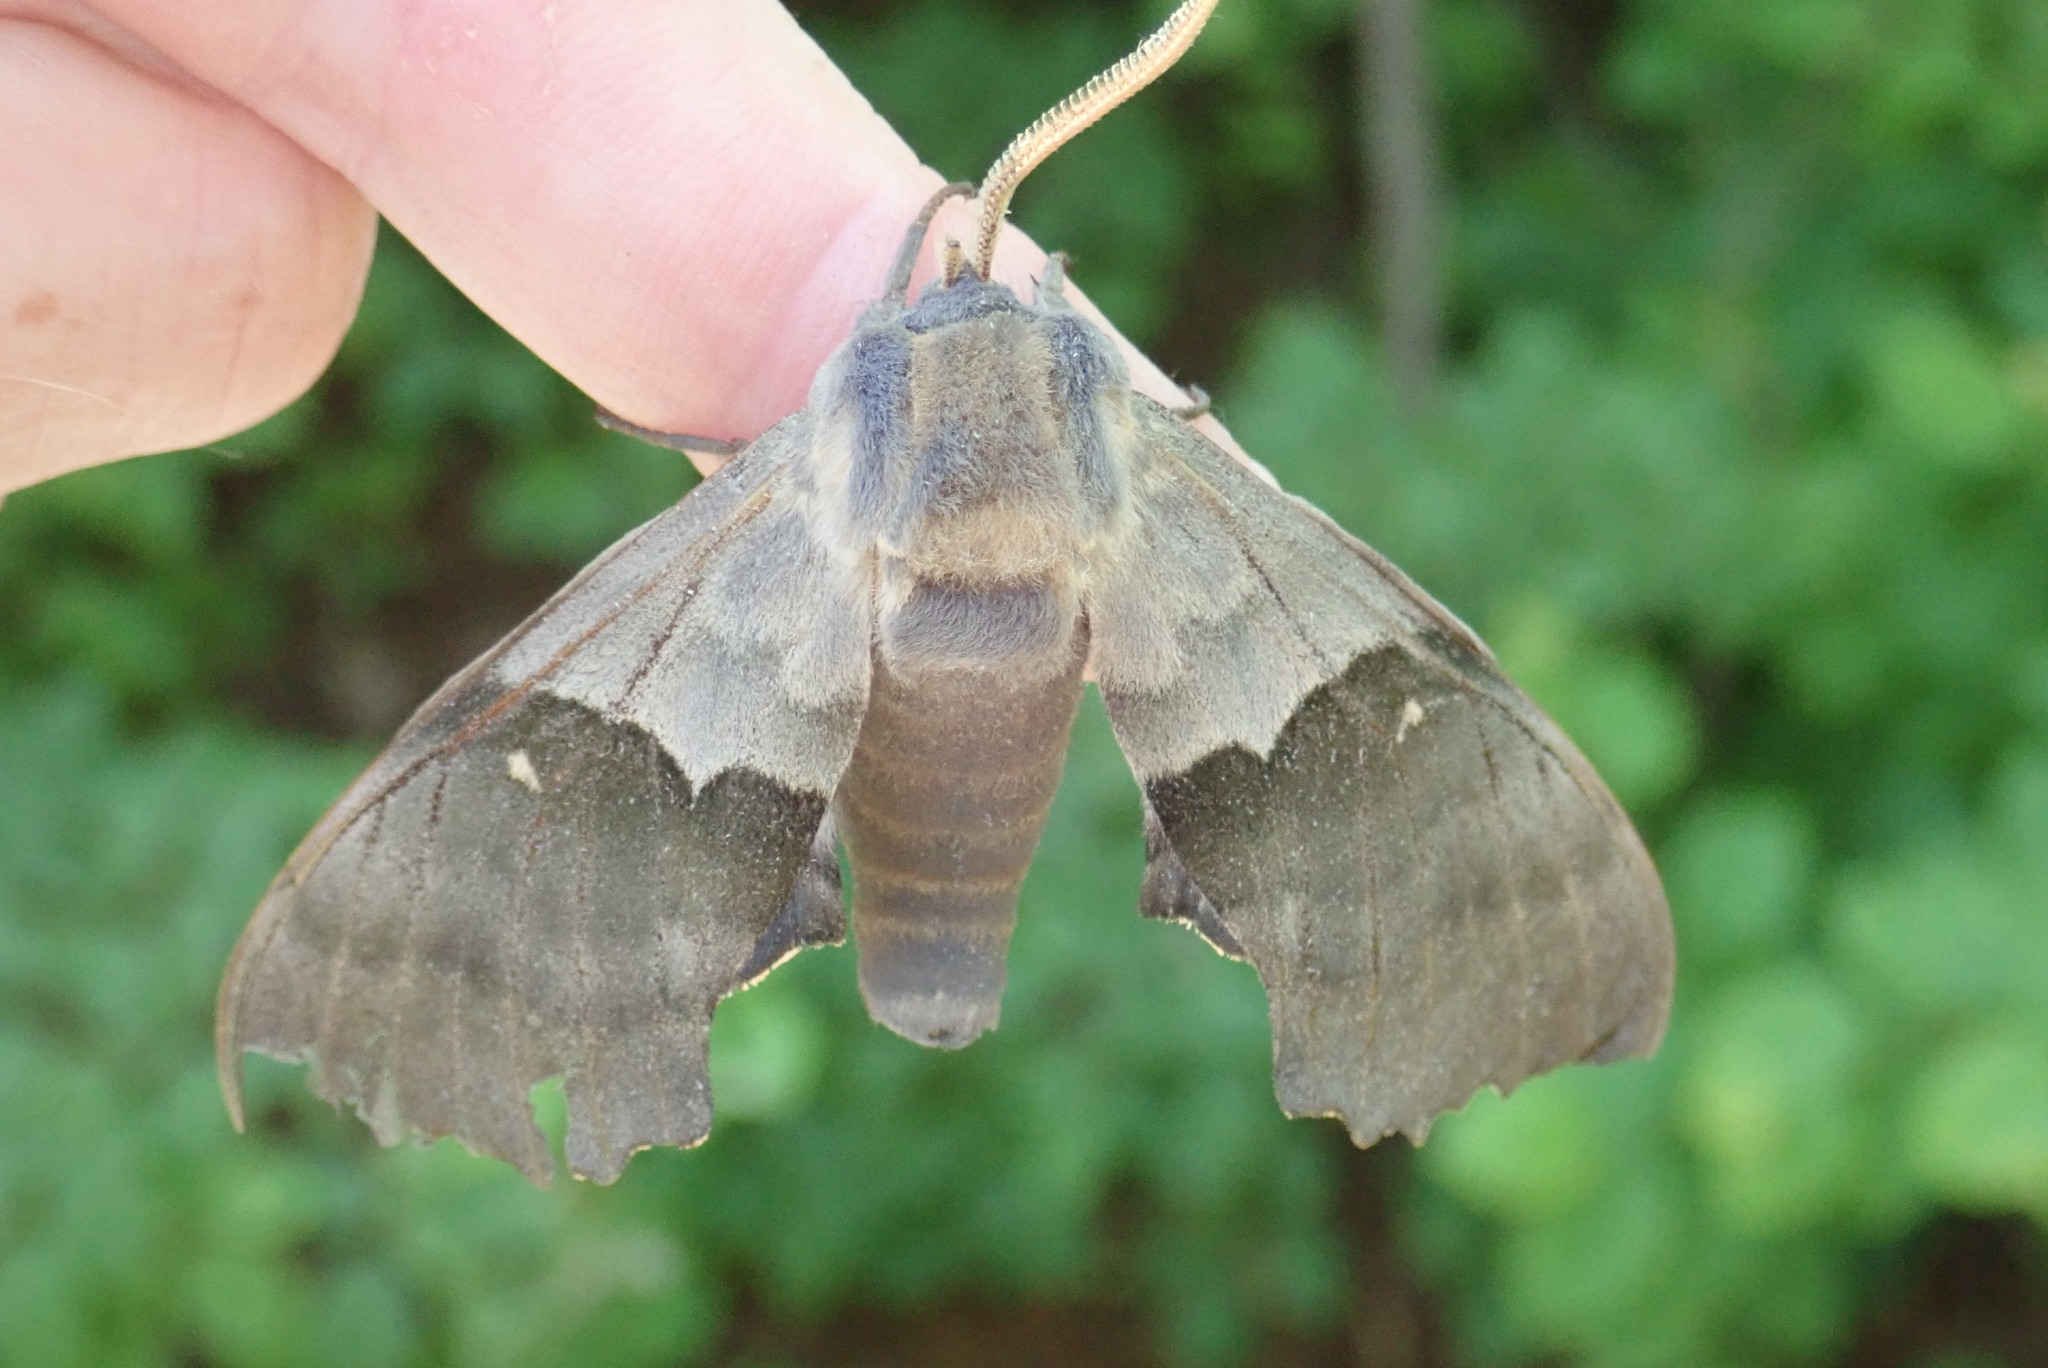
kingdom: Animalia
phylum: Arthropoda
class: Insecta
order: Lepidoptera
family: Sphingidae
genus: Pachysphinx
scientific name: Pachysphinx modesta
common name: Big poplar sphinx
